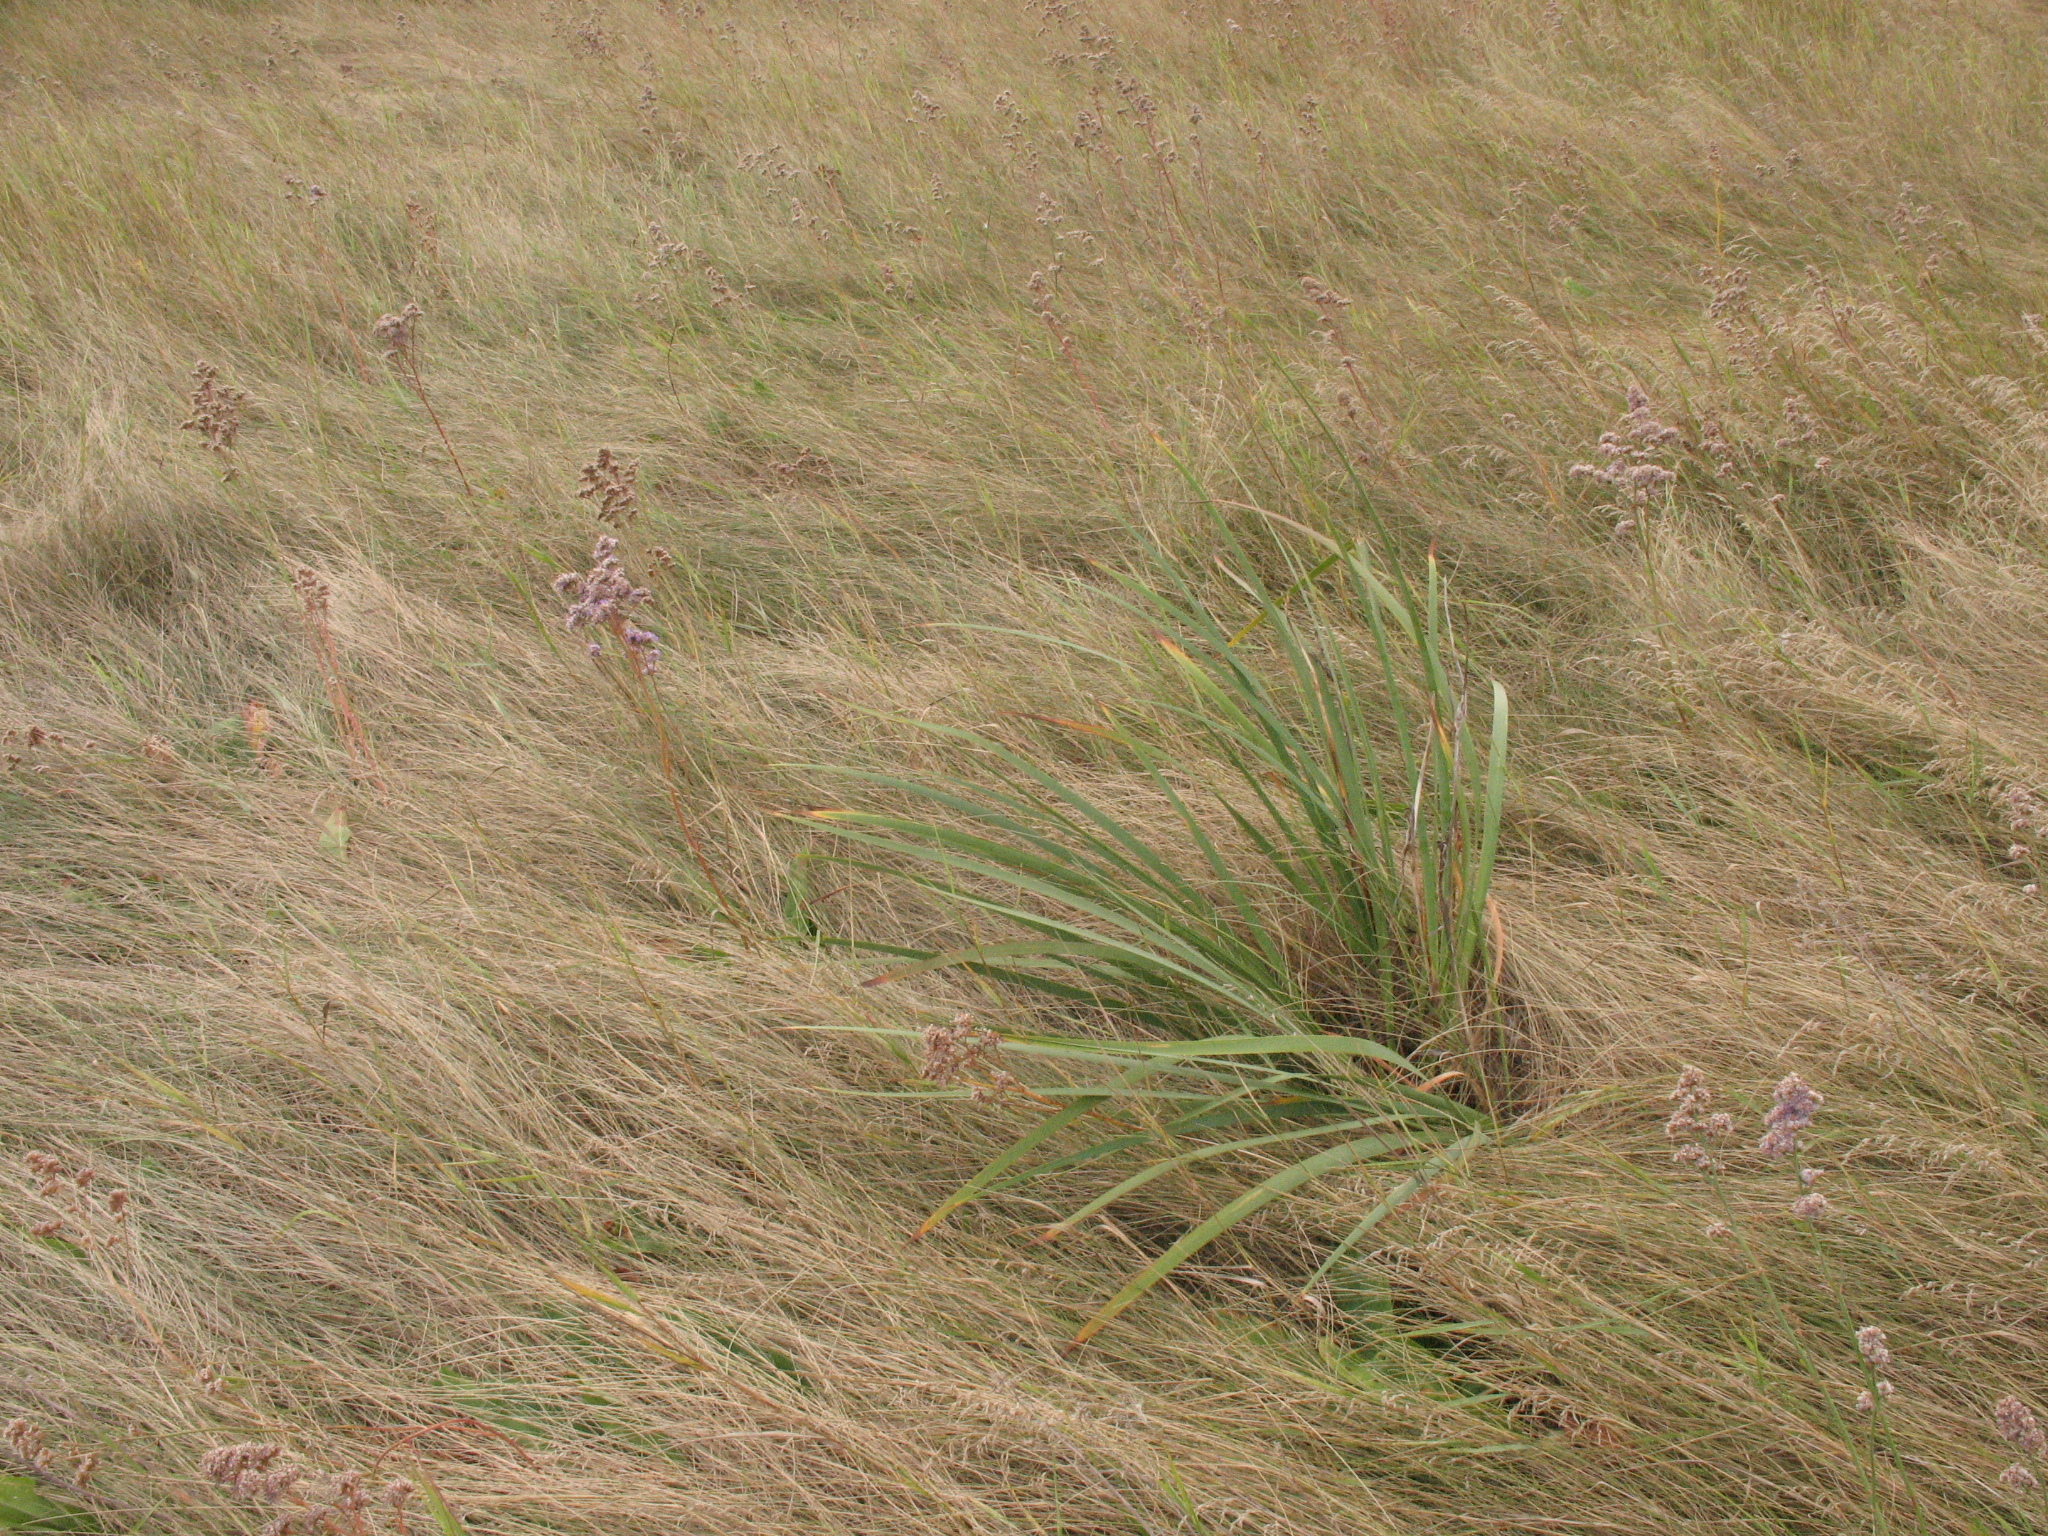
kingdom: Plantae
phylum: Tracheophyta
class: Liliopsida
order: Asparagales
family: Iridaceae
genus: Iris
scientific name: Iris halophila
